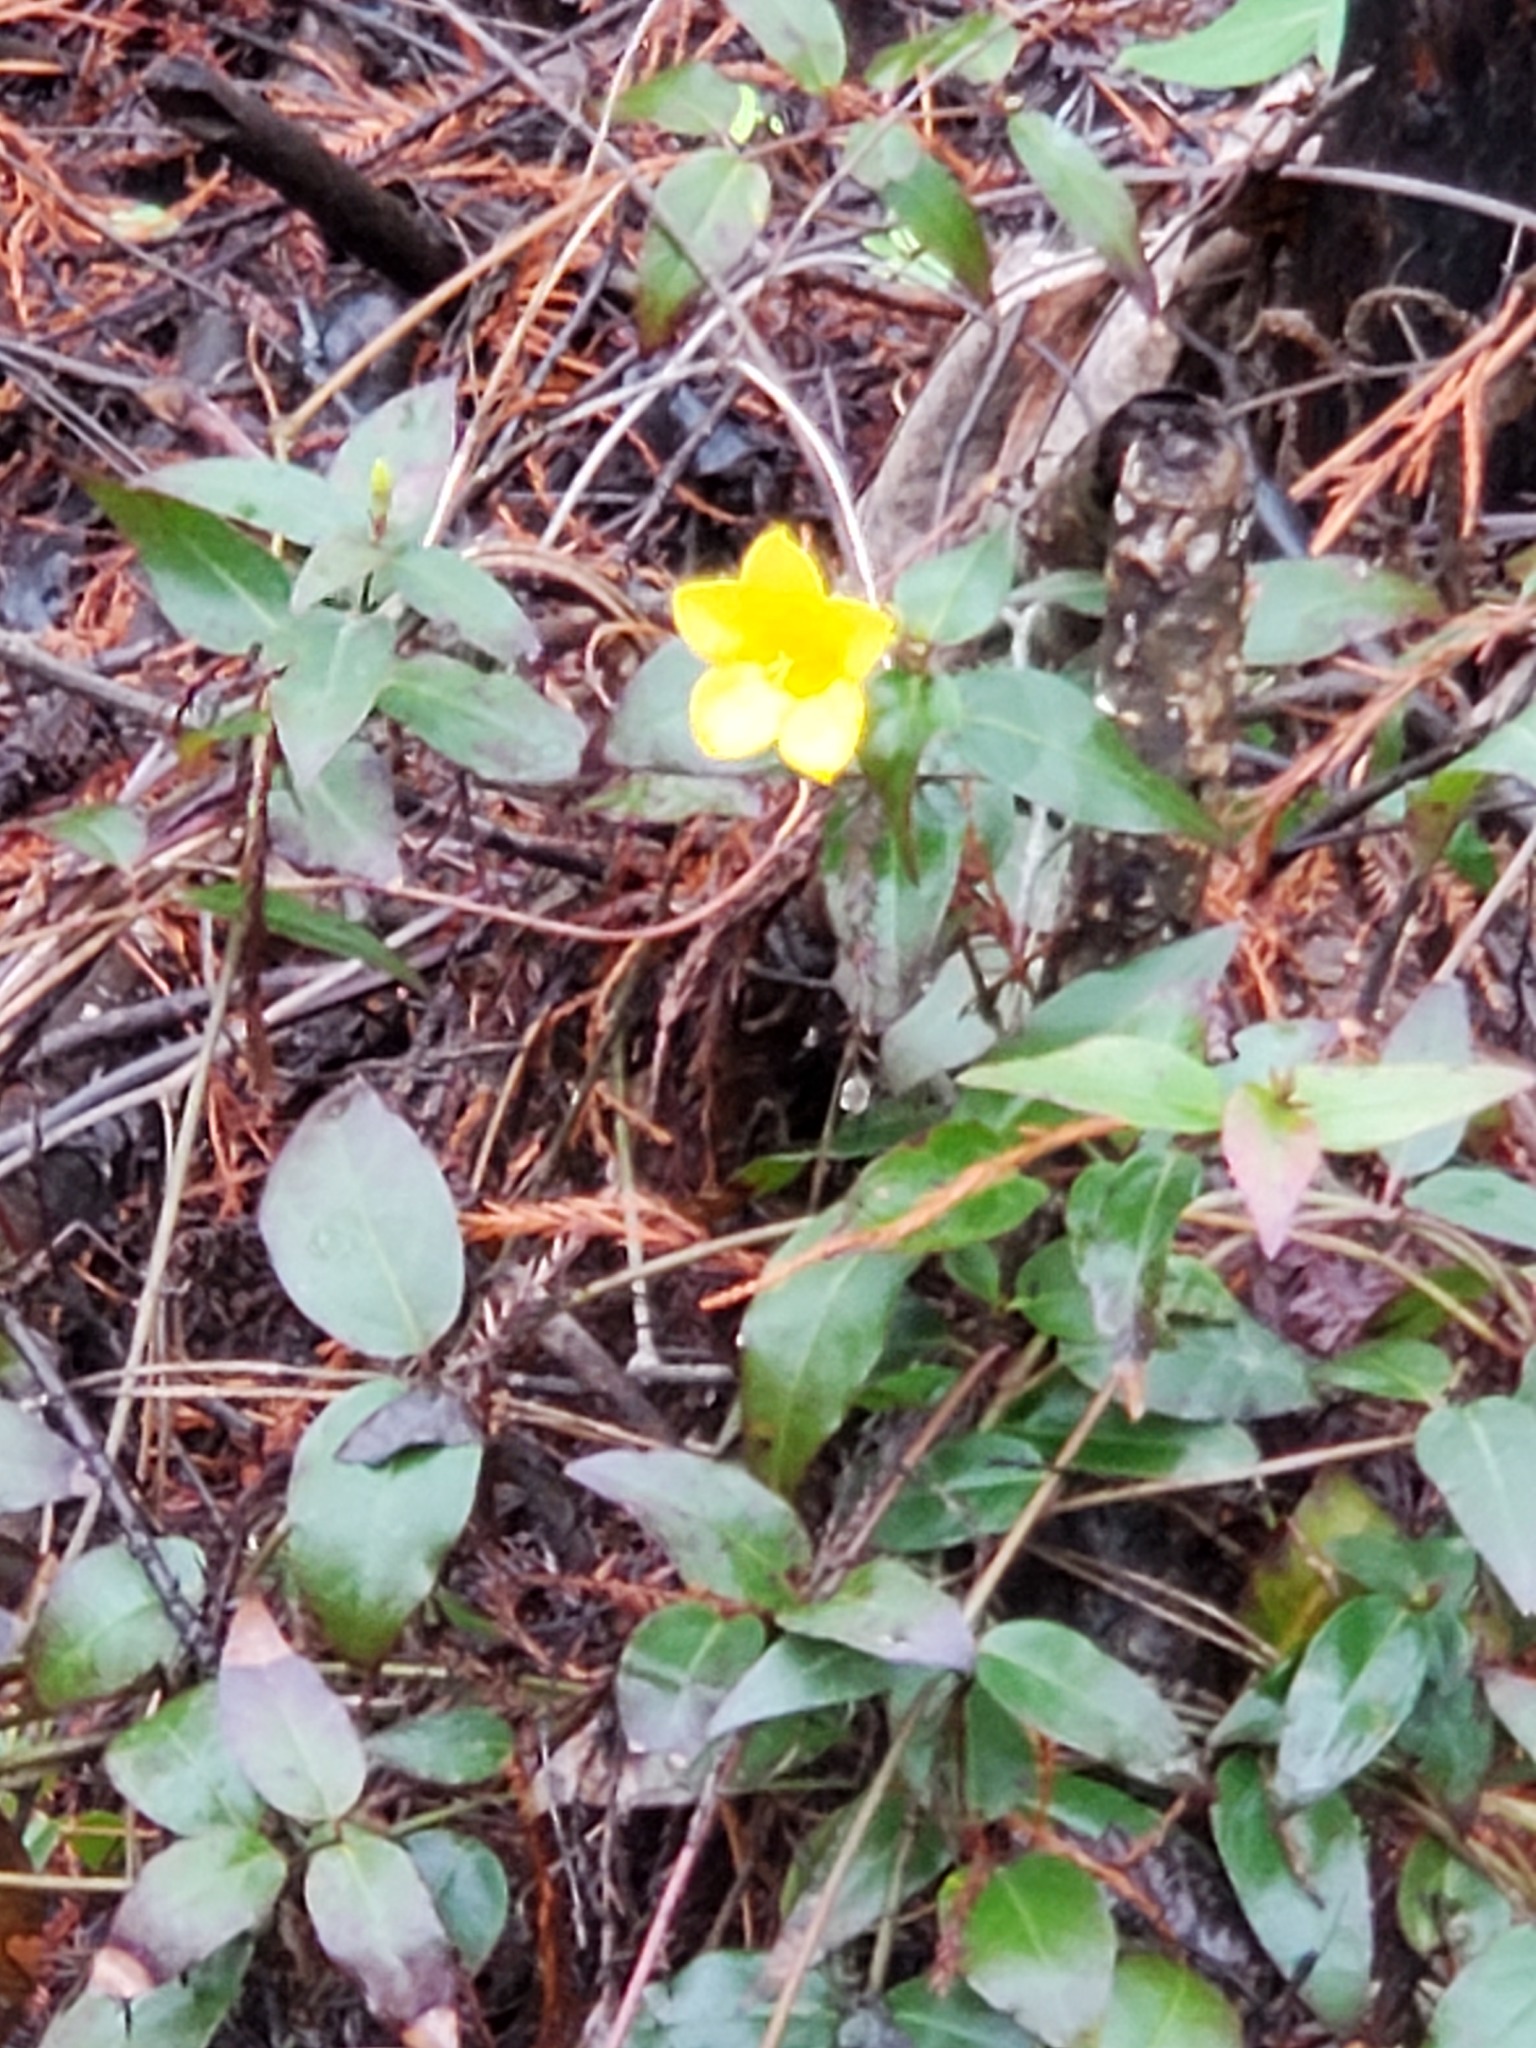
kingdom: Plantae
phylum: Tracheophyta
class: Magnoliopsida
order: Gentianales
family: Gelsemiaceae
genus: Gelsemium
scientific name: Gelsemium sempervirens
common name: Carolina-jasmine
